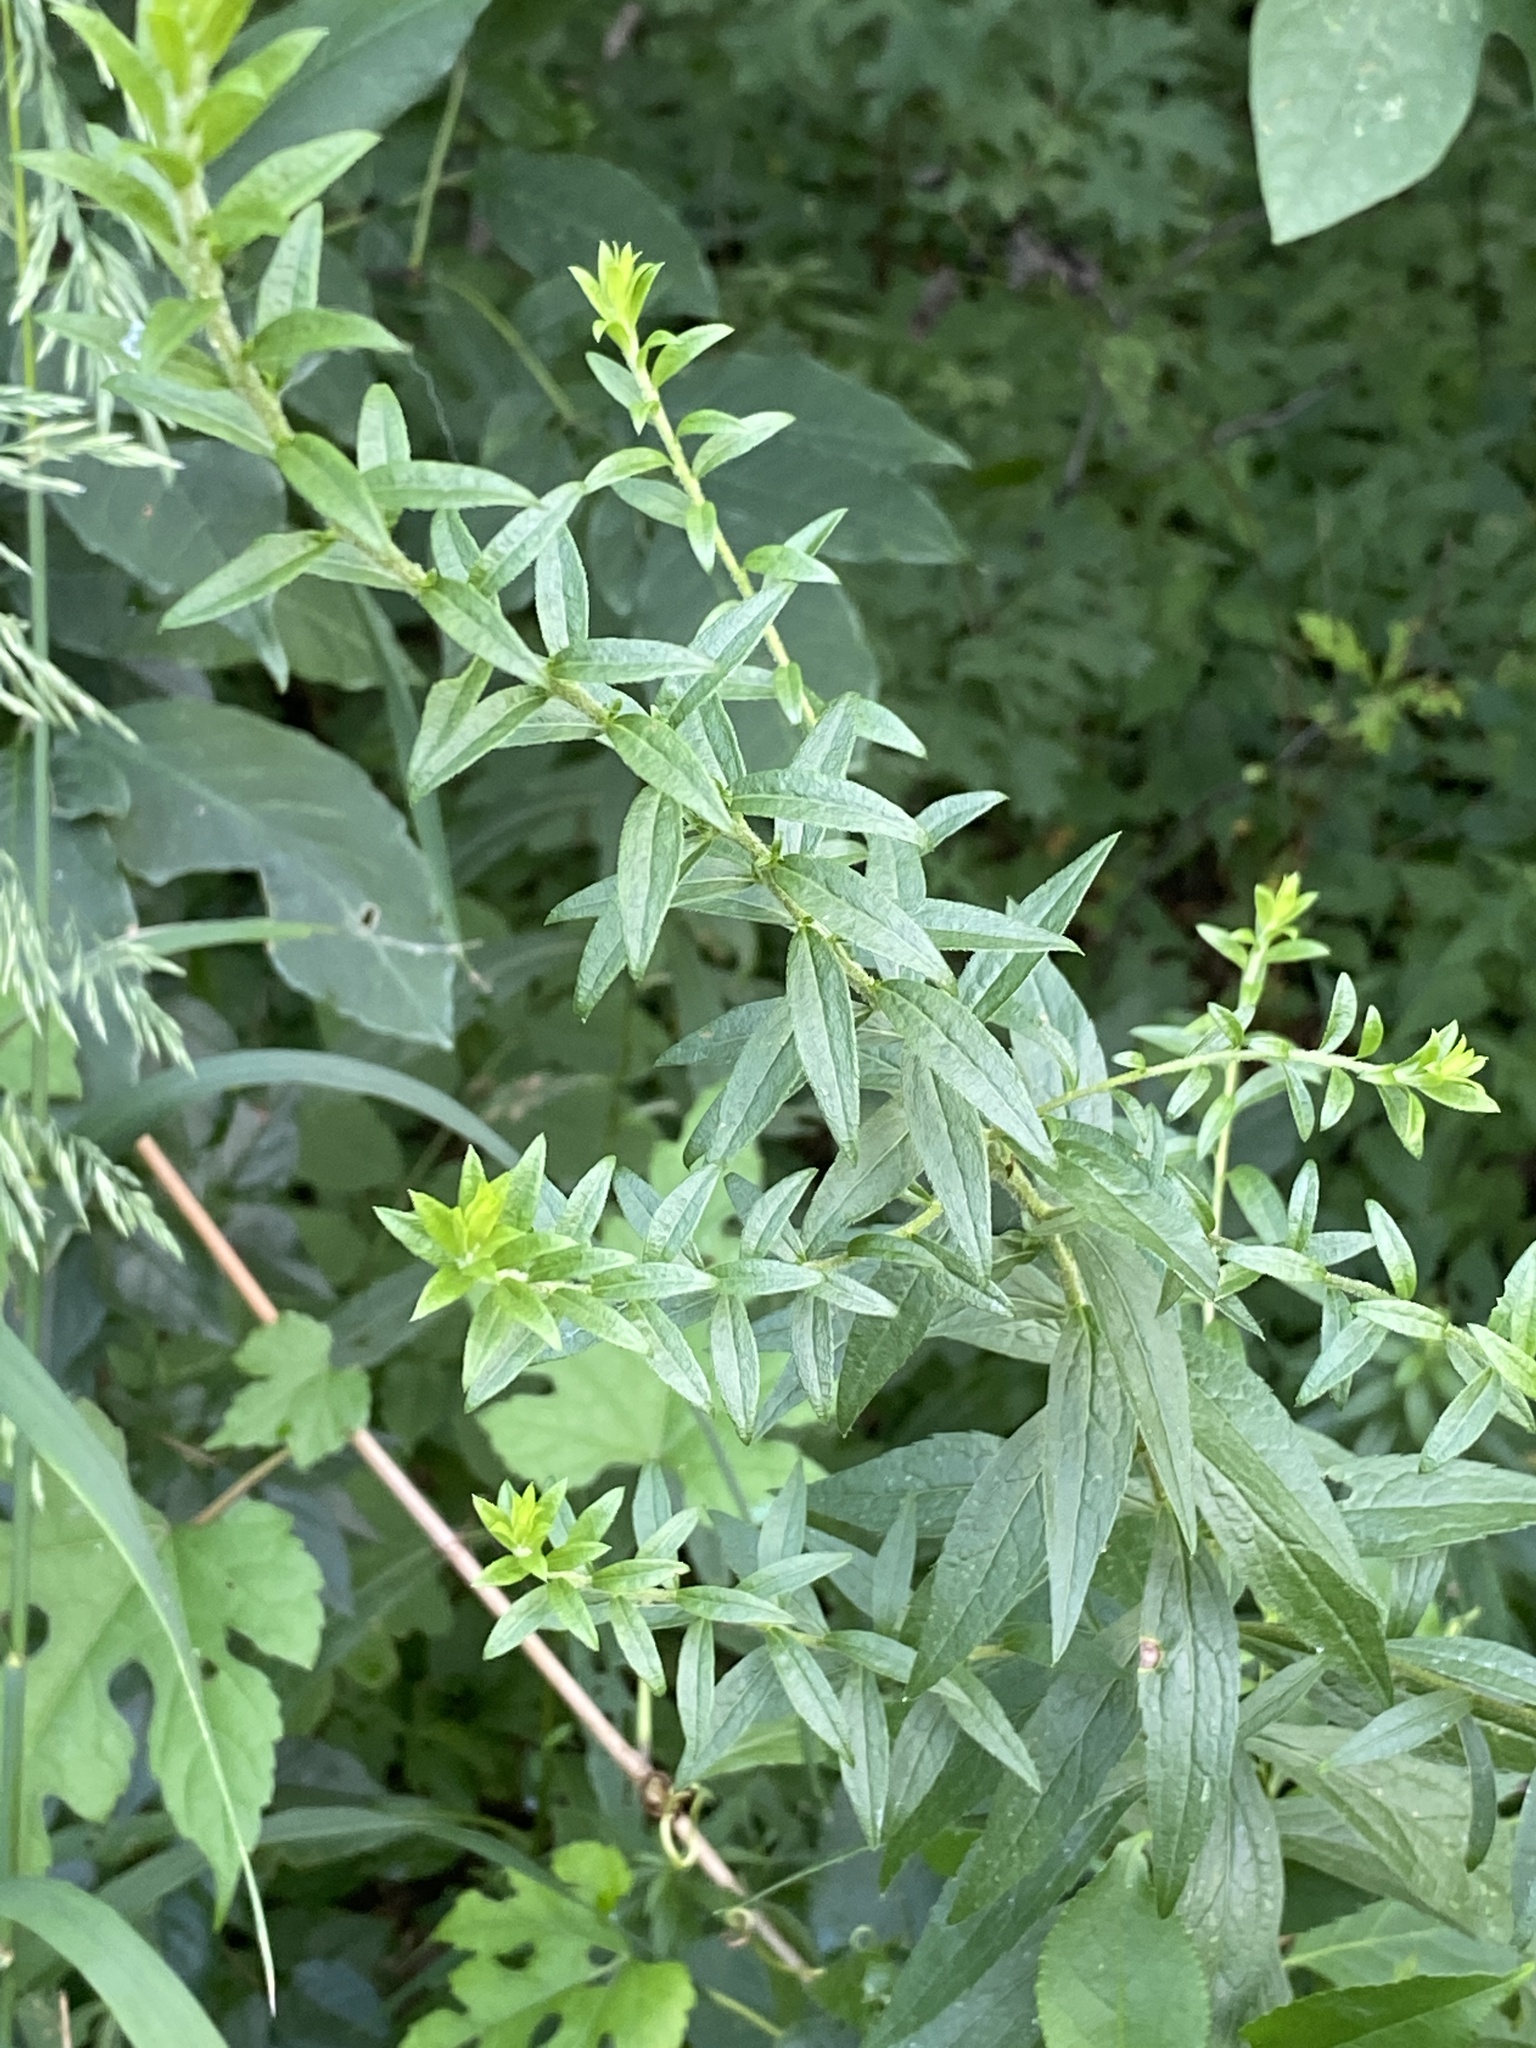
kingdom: Plantae
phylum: Tracheophyta
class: Magnoliopsida
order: Asterales
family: Asteraceae
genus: Solidago
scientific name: Solidago rugosa
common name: Rough-stemmed goldenrod
